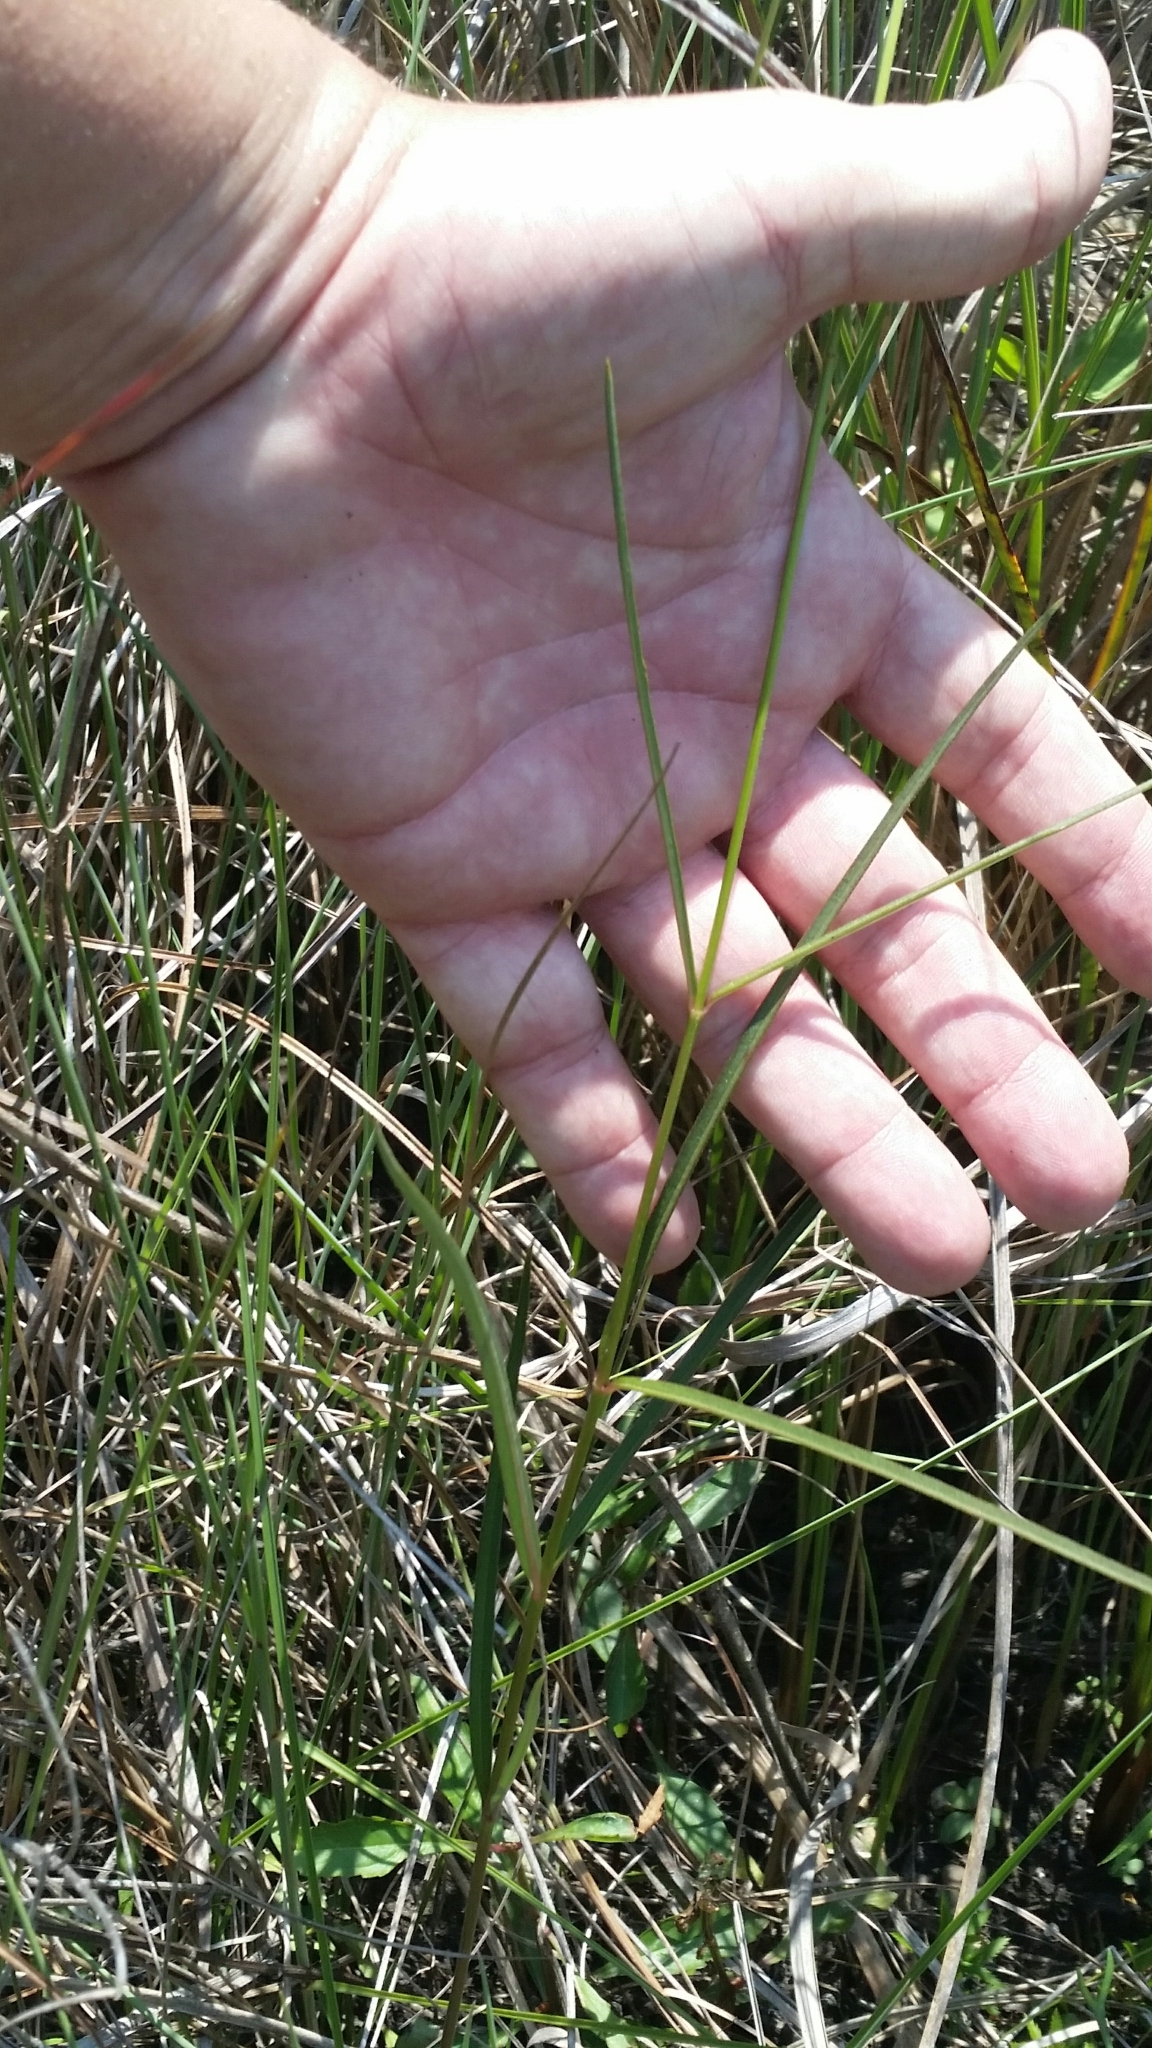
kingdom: Plantae
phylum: Tracheophyta
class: Magnoliopsida
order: Gentianales
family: Apocynaceae
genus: Asclepias
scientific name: Asclepias lanceolata
